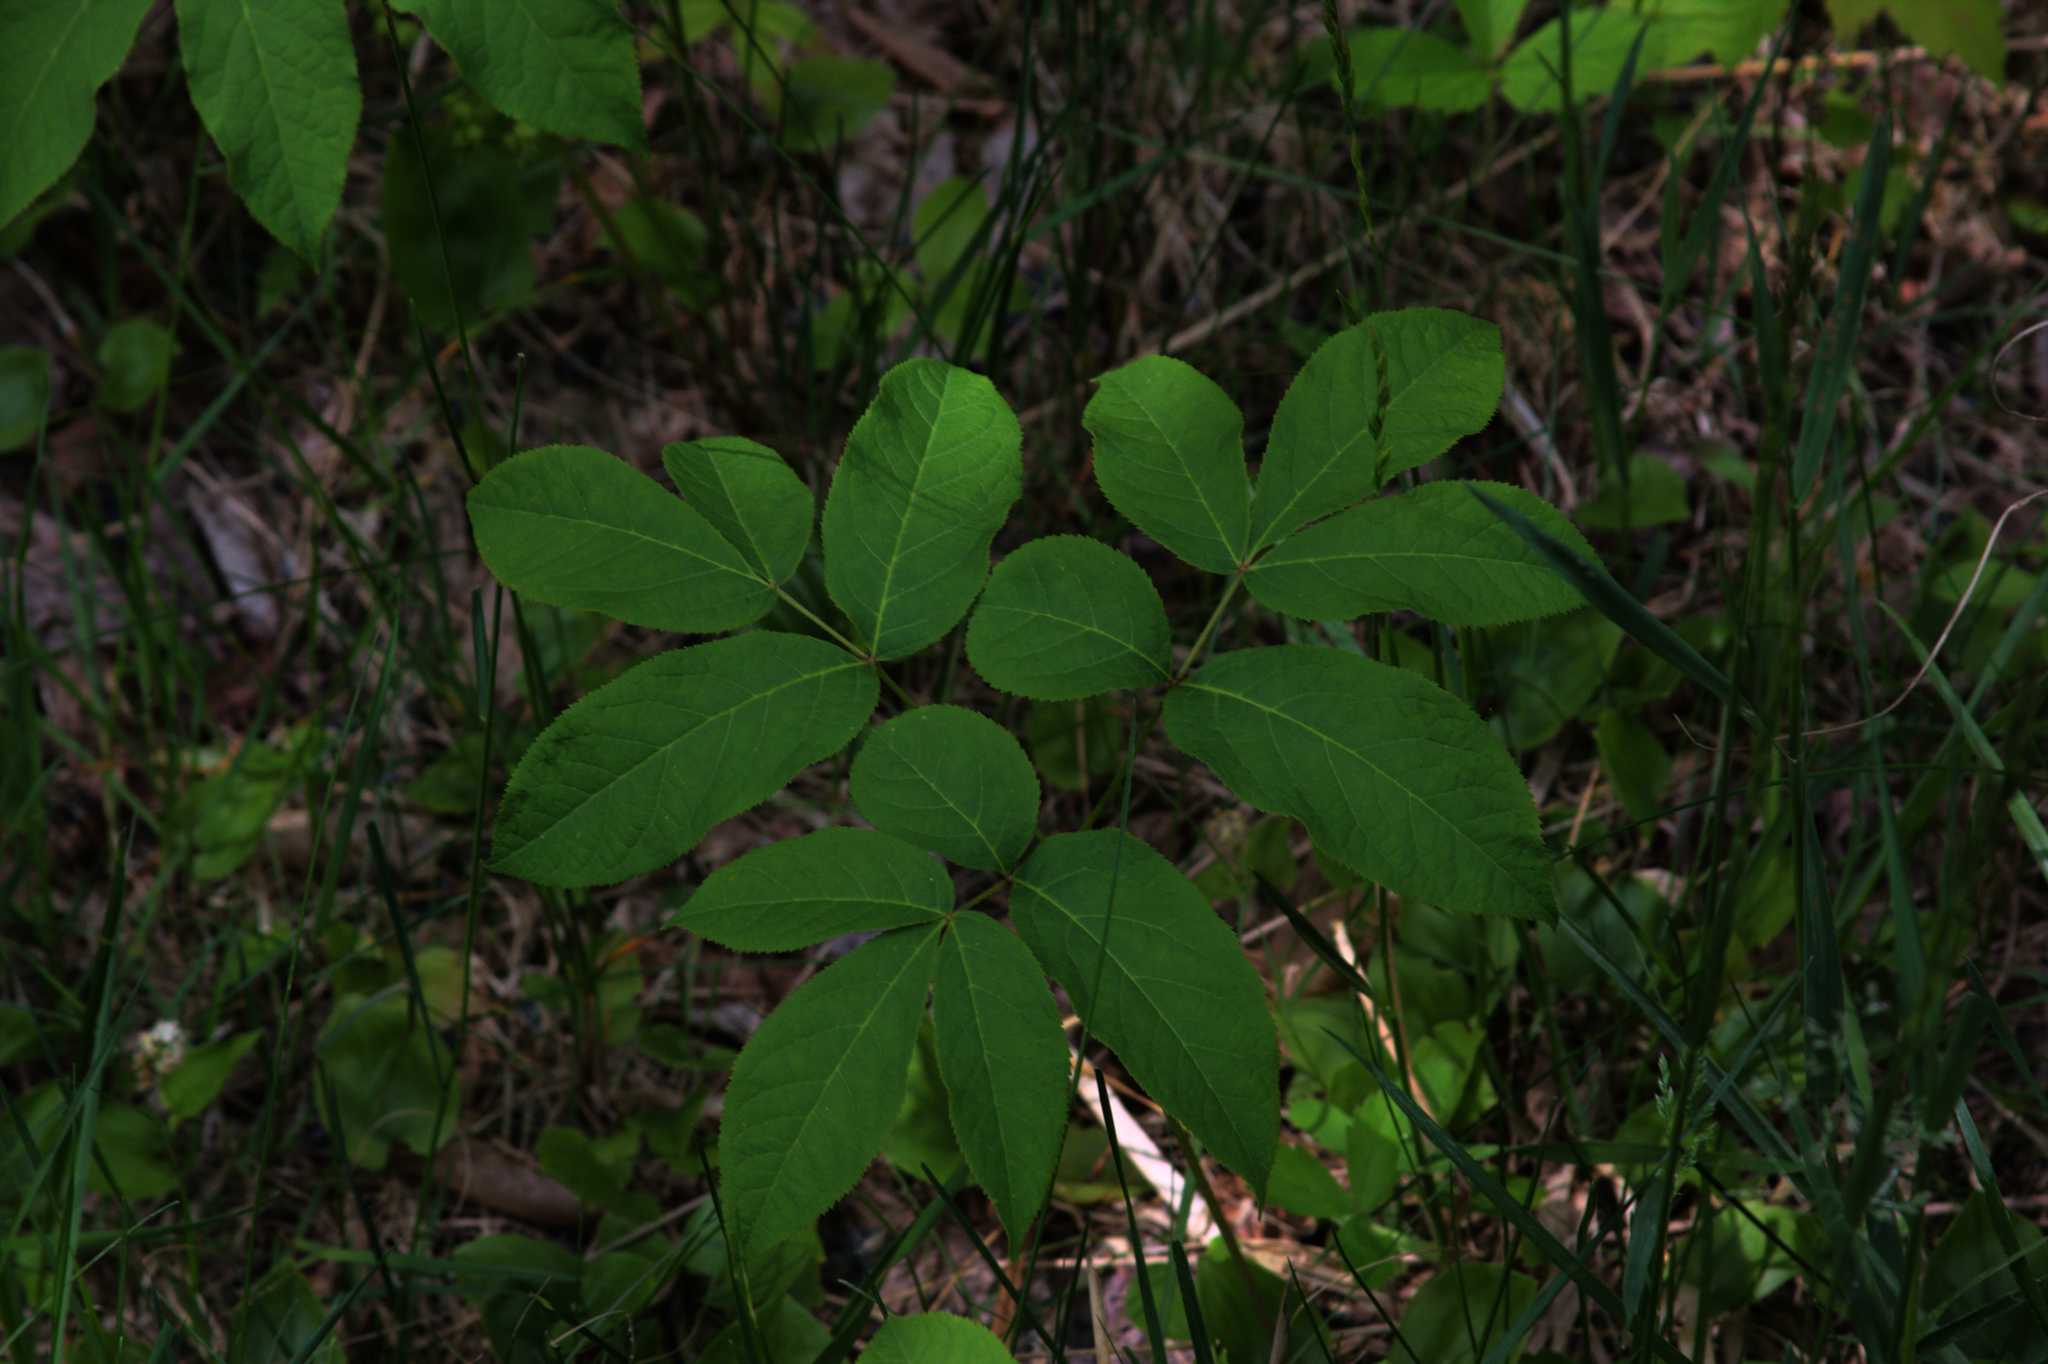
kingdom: Plantae
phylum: Tracheophyta
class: Magnoliopsida
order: Apiales
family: Araliaceae
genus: Aralia
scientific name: Aralia nudicaulis
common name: Wild sarsaparilla
